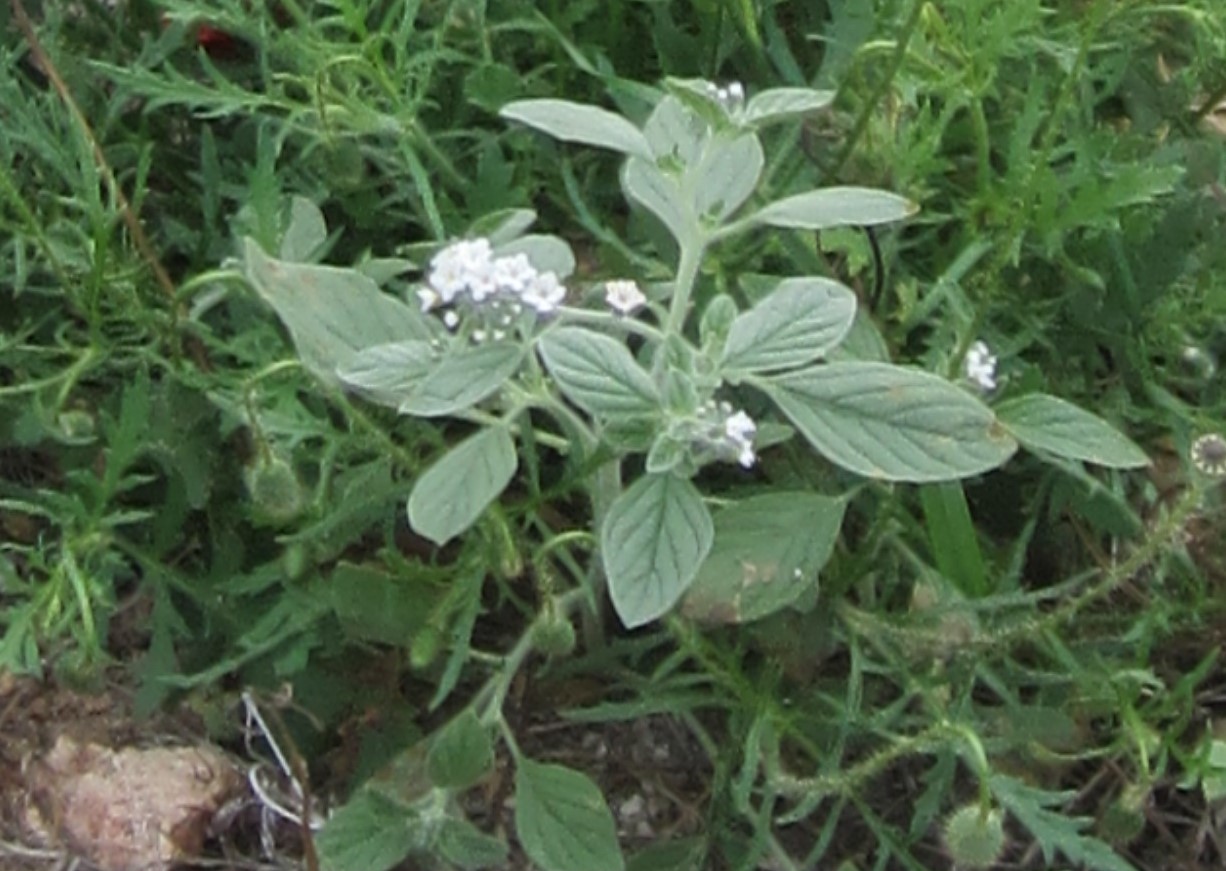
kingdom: Plantae
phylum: Tracheophyta
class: Magnoliopsida
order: Boraginales
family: Heliotropiaceae
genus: Heliotropium
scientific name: Heliotropium hirsutissimum
